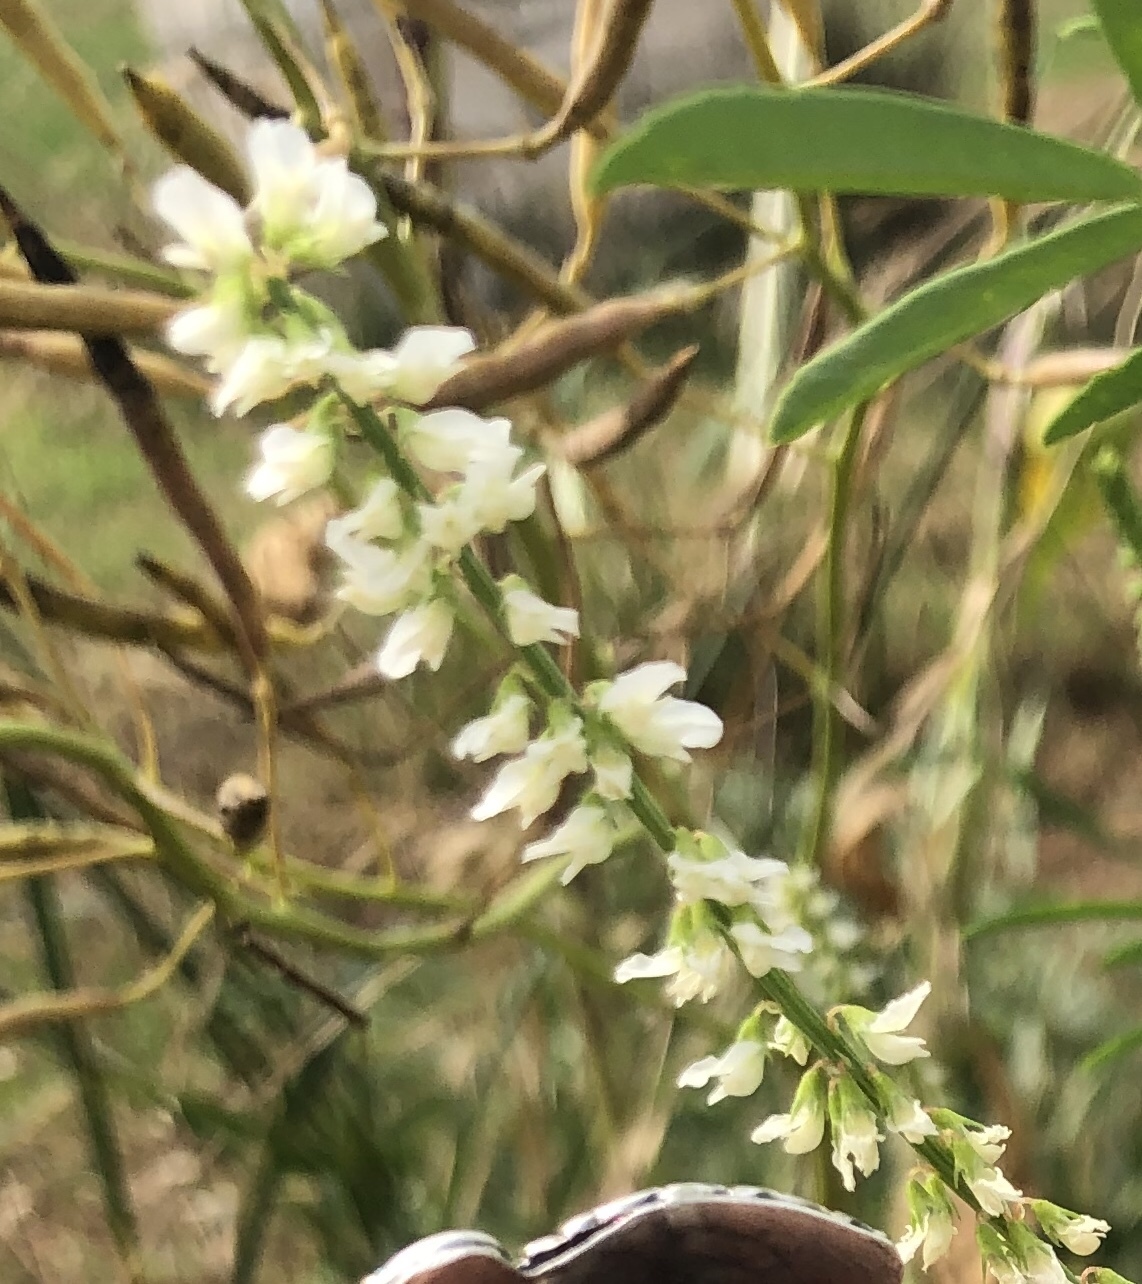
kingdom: Plantae
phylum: Tracheophyta
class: Magnoliopsida
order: Fabales
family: Fabaceae
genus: Melilotus
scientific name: Melilotus albus
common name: White melilot
